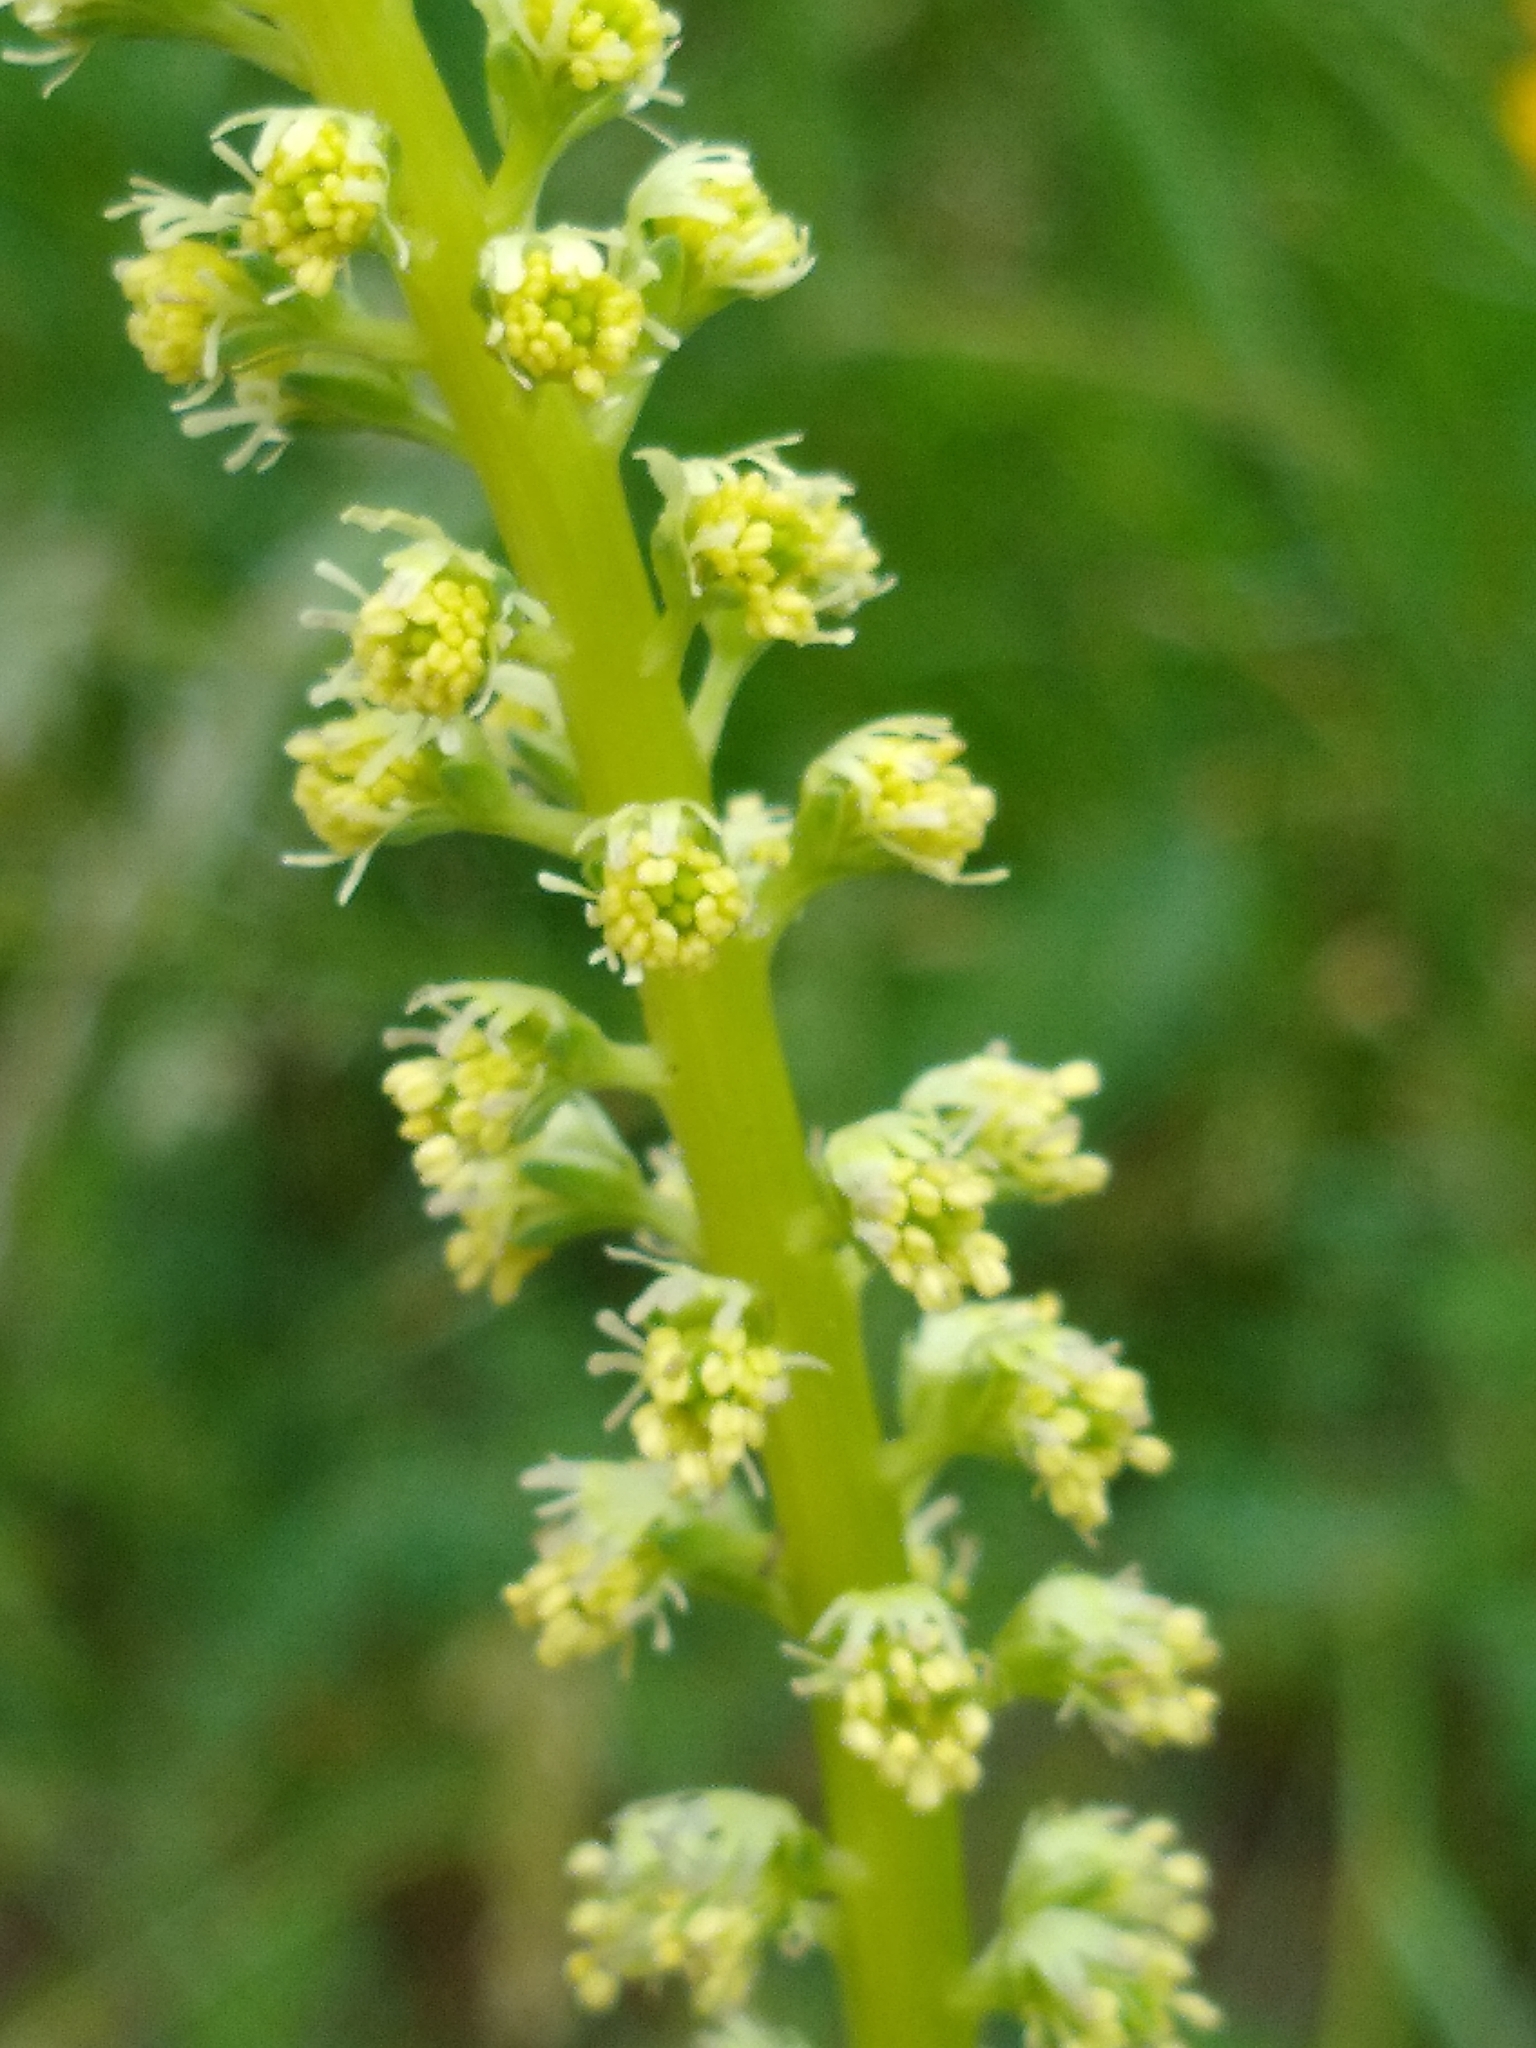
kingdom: Plantae
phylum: Tracheophyta
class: Magnoliopsida
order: Brassicales
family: Resedaceae
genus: Reseda
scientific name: Reseda luteola
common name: Weld
